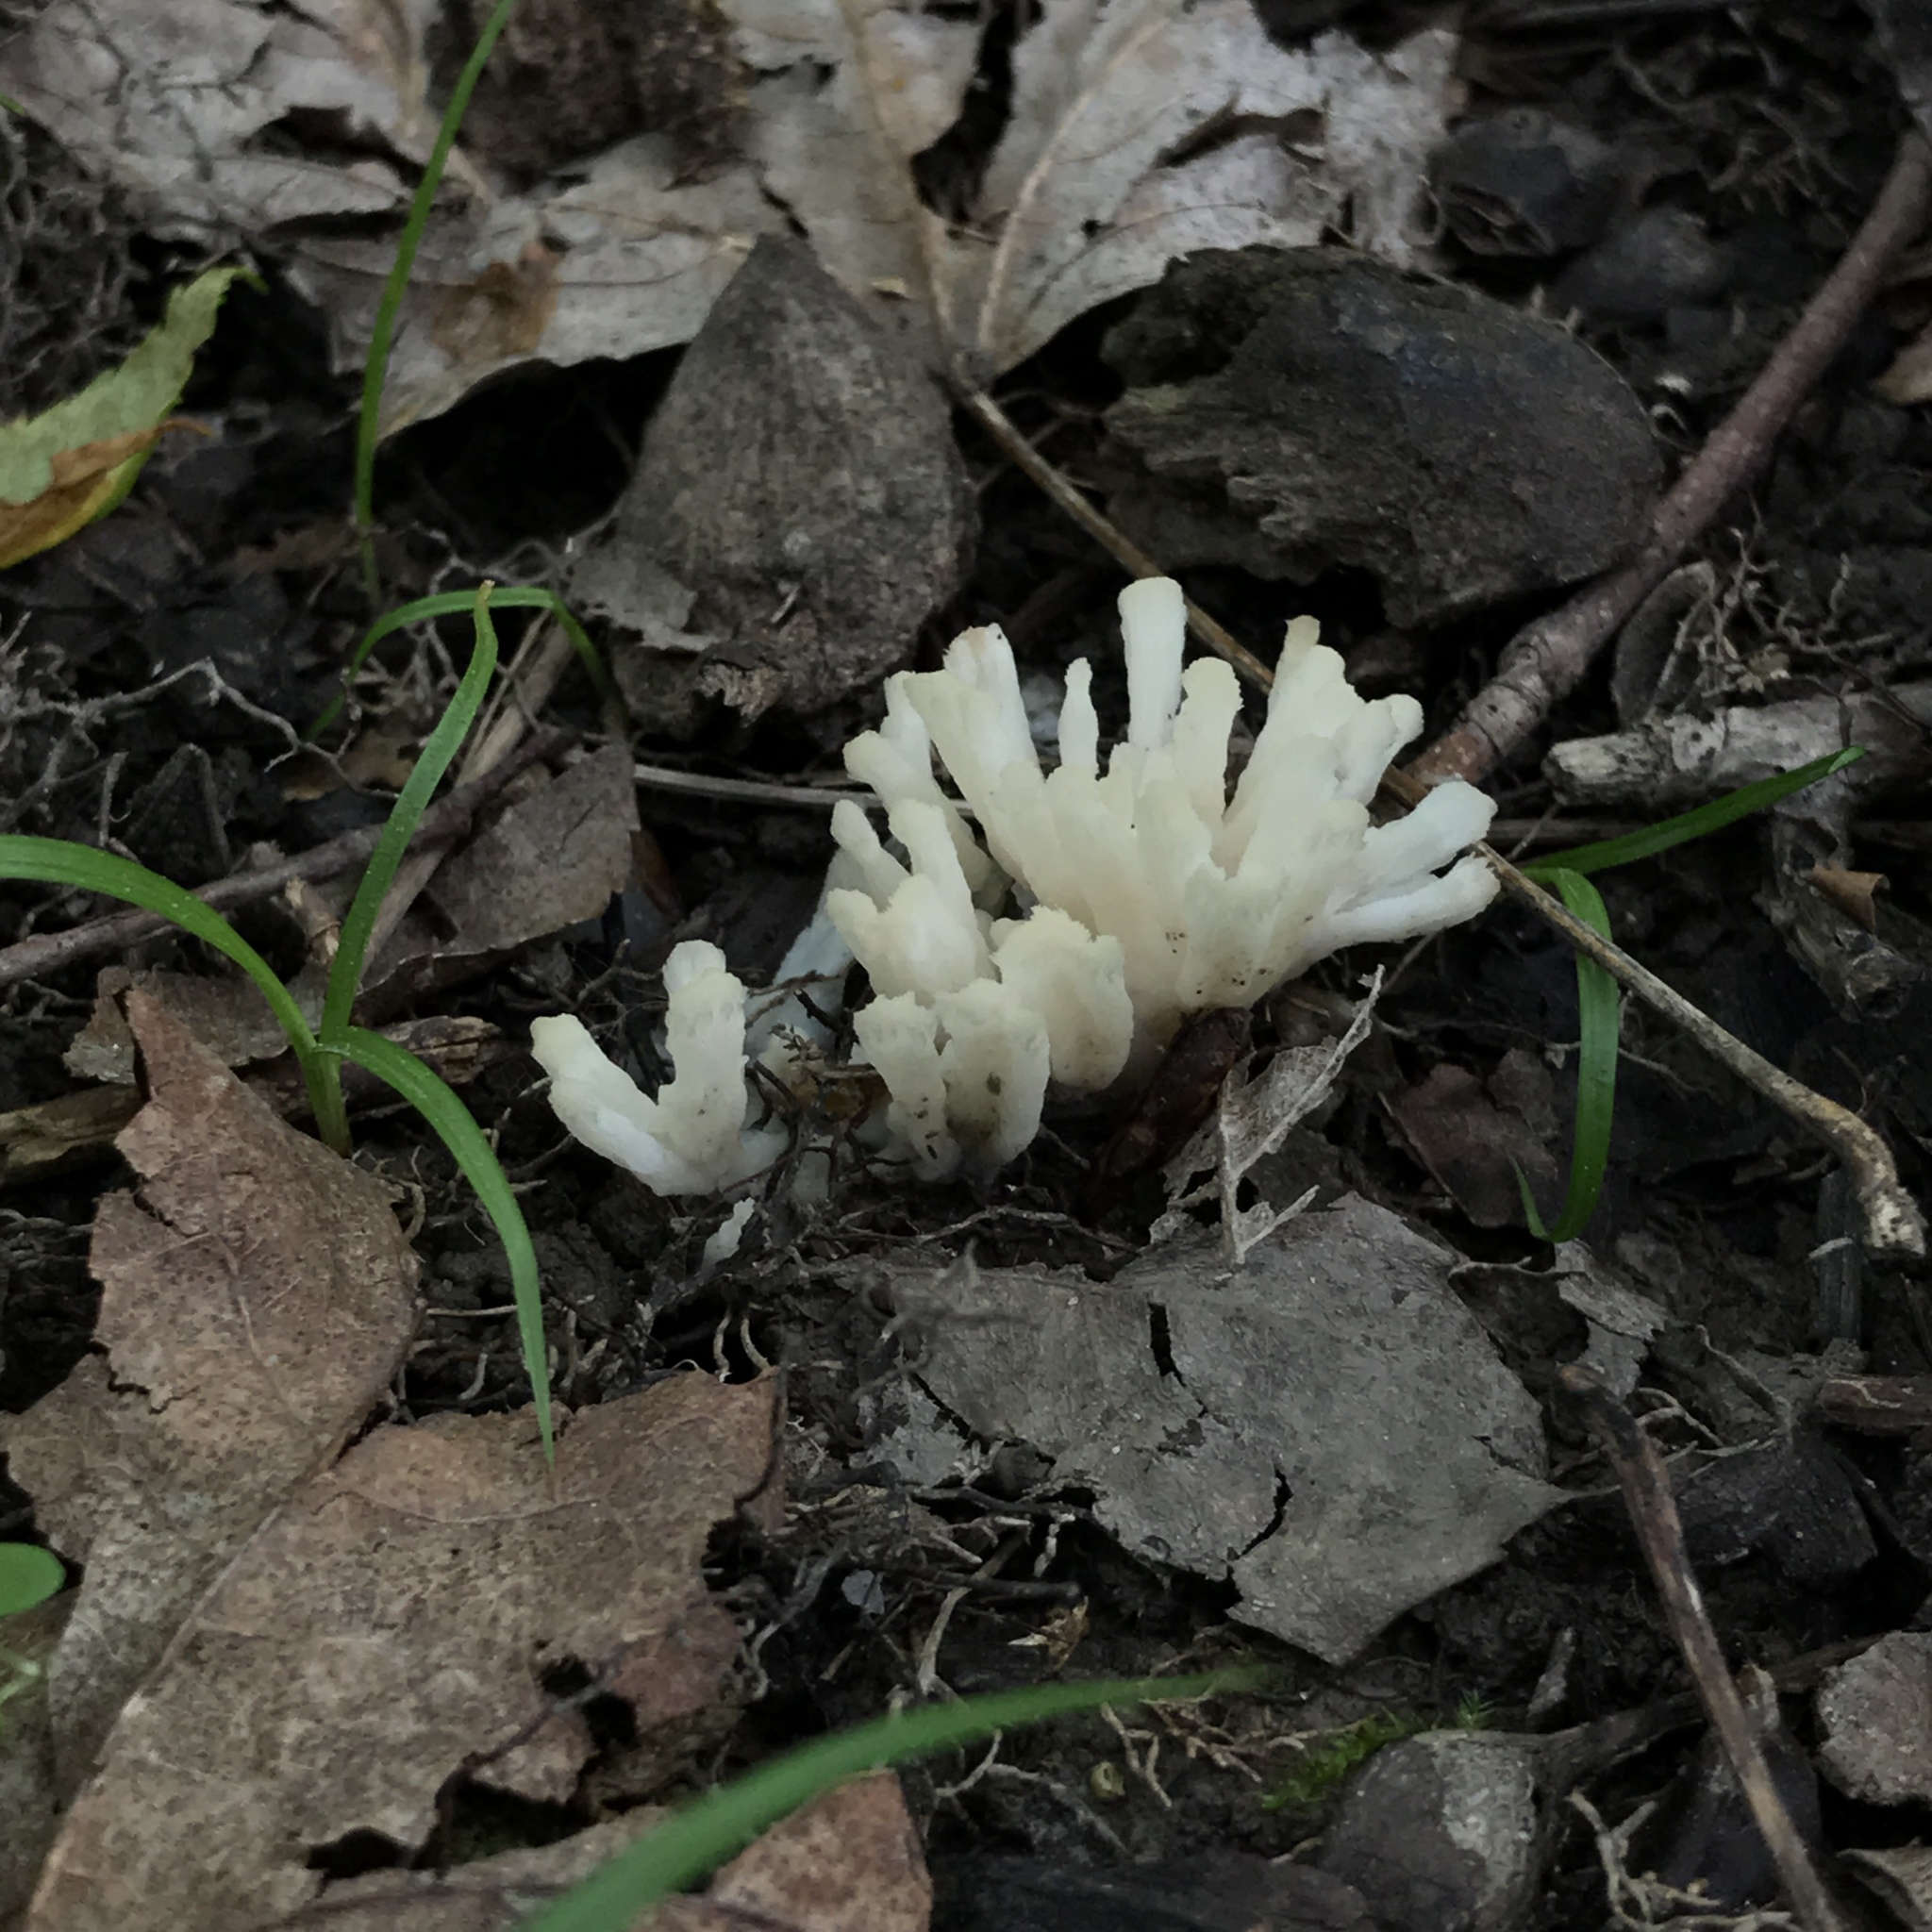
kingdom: Fungi
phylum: Basidiomycota
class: Agaricomycetes
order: Sebacinales
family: Sebacinaceae
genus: Sebacina
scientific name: Sebacina schweinitzii
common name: Jellied false coral fungus
